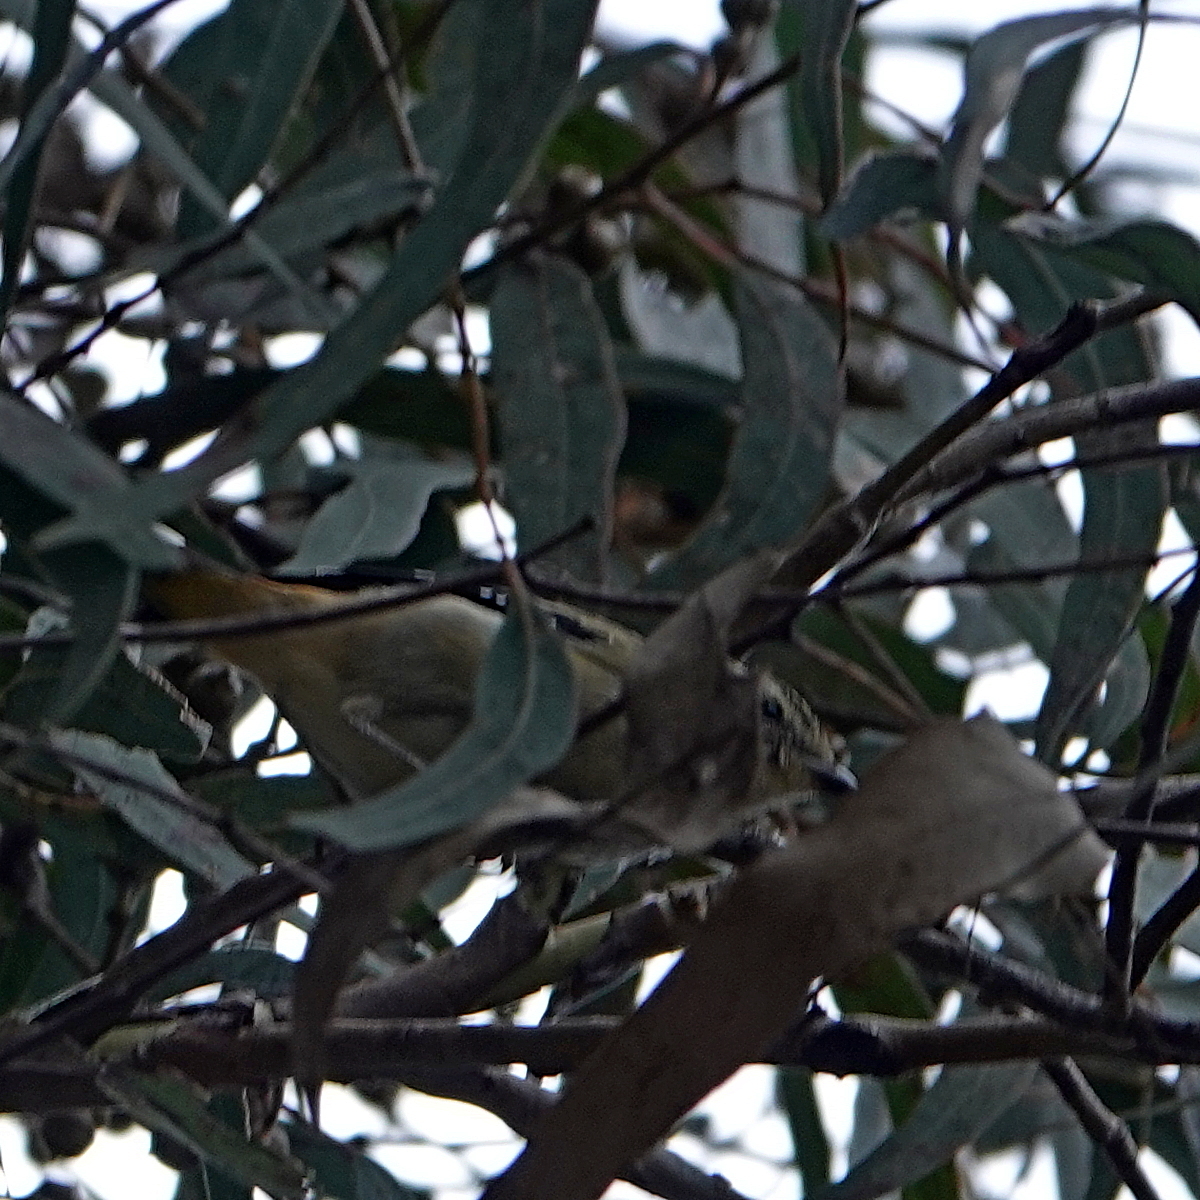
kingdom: Animalia
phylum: Chordata
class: Aves
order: Passeriformes
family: Pardalotidae
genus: Pardalotus
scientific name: Pardalotus punctatus
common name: Spotted pardalote
